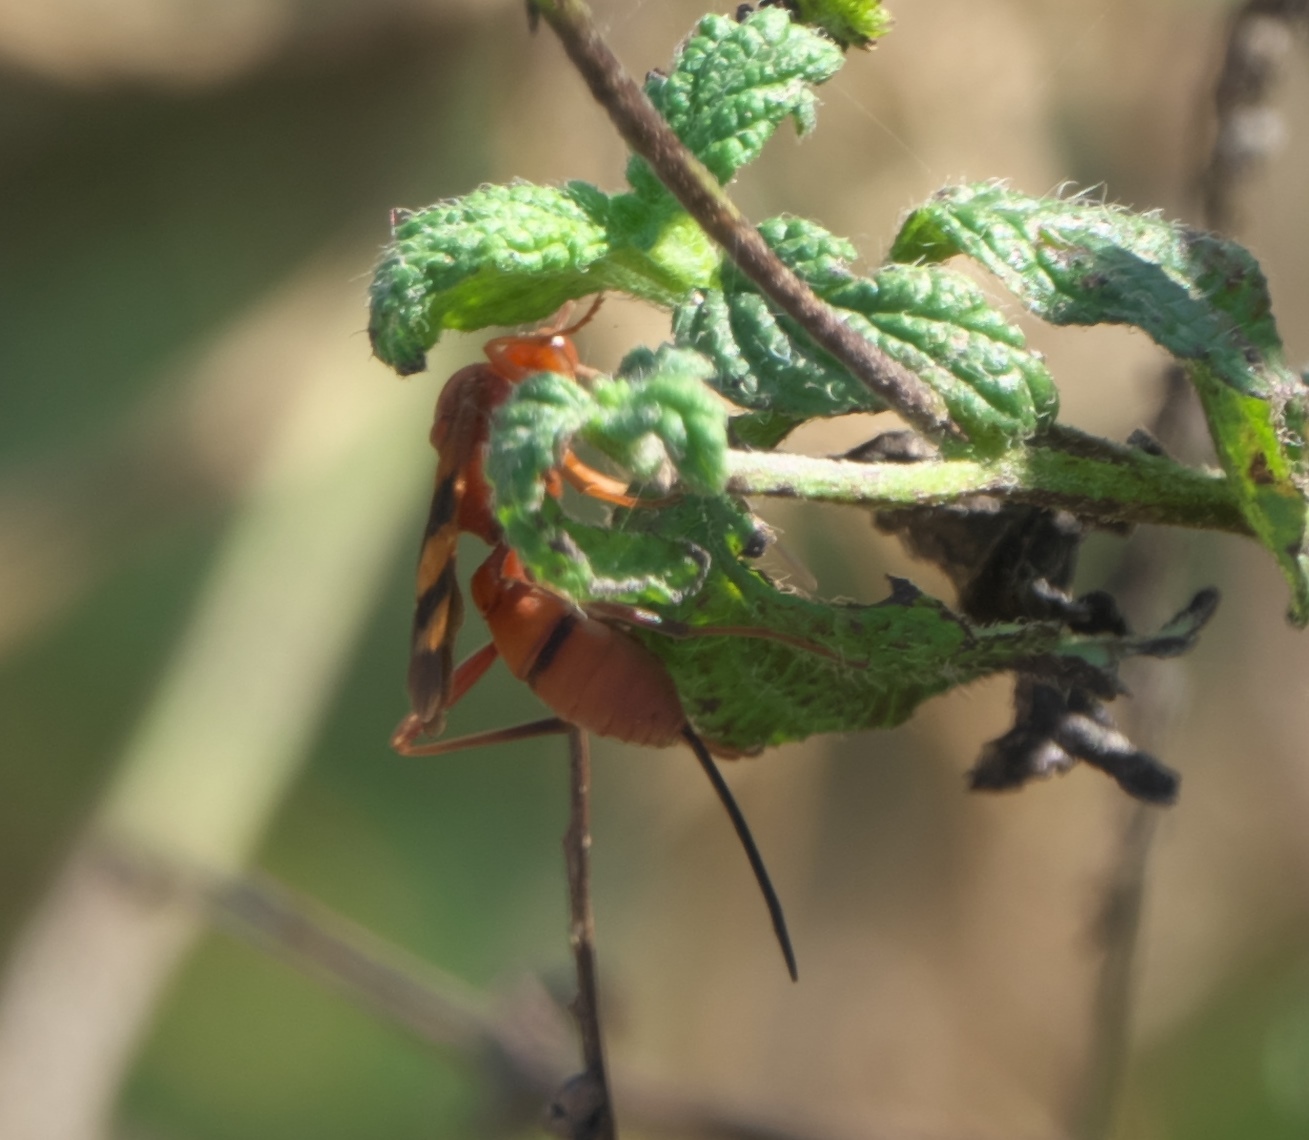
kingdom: Animalia
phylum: Arthropoda
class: Insecta
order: Hymenoptera
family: Ichneumonidae
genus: Compsocryptus
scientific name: Compsocryptus texensis
